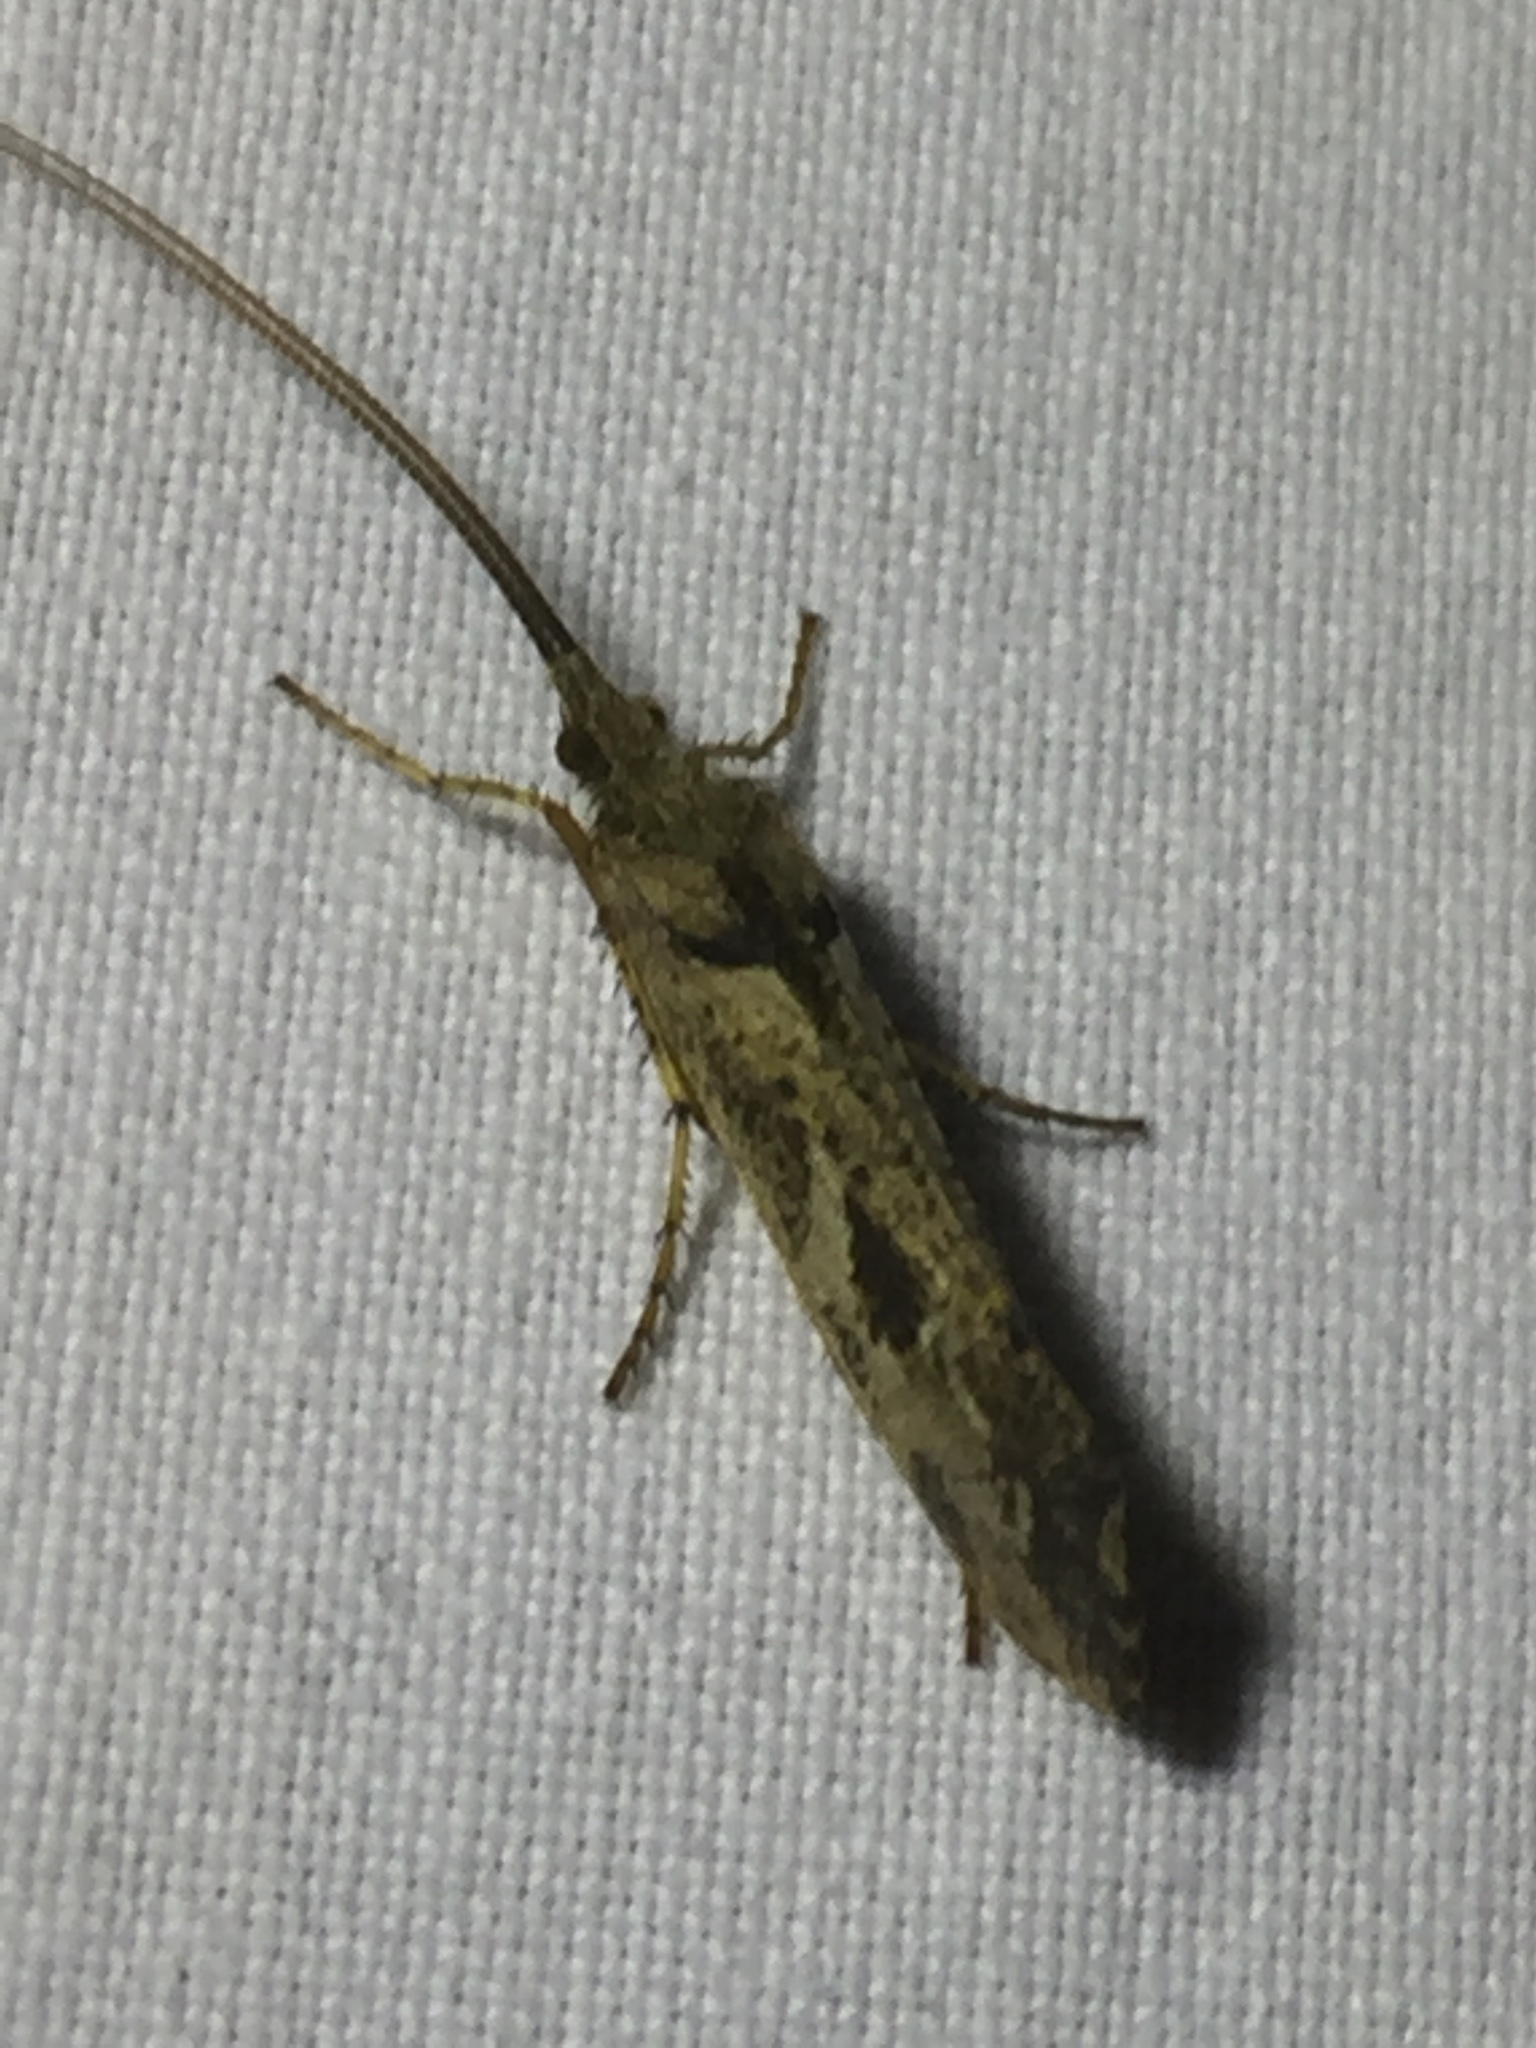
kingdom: Animalia
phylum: Arthropoda
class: Insecta
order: Trichoptera
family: Limnephilidae
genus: Glyphotaelius
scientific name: Glyphotaelius pellucidus
